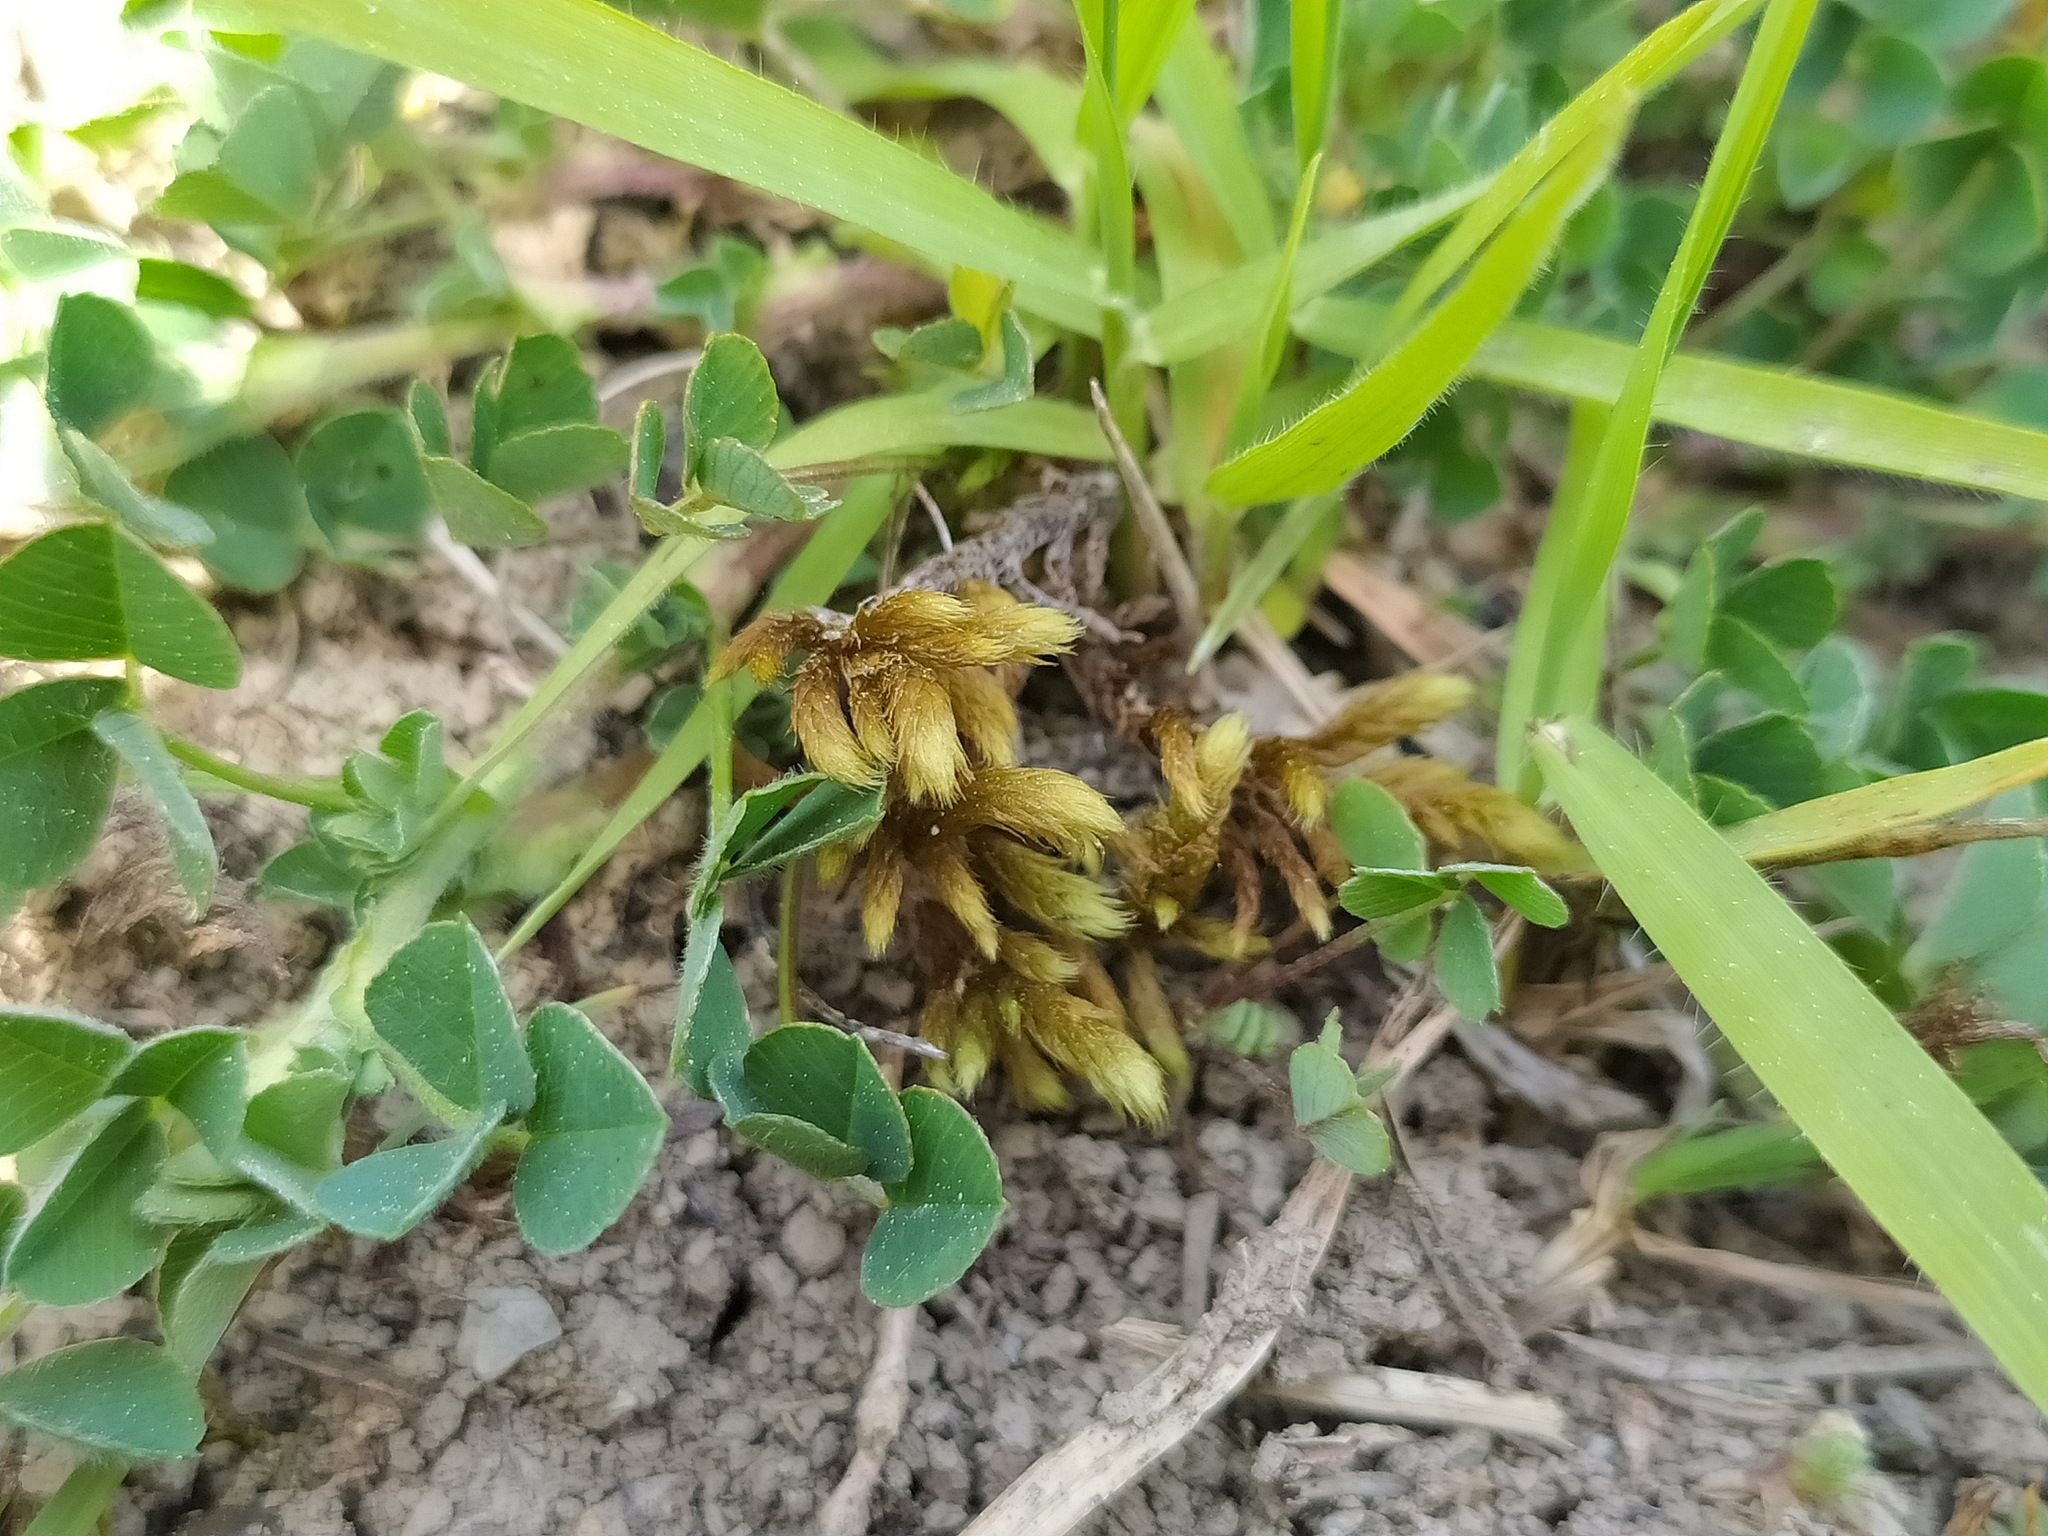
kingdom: Plantae
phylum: Bryophyta
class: Bryopsida
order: Hypnales
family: Rhytidiaceae
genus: Rhytidium
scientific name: Rhytidium rugosum
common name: Wrinkle-leaved moss
